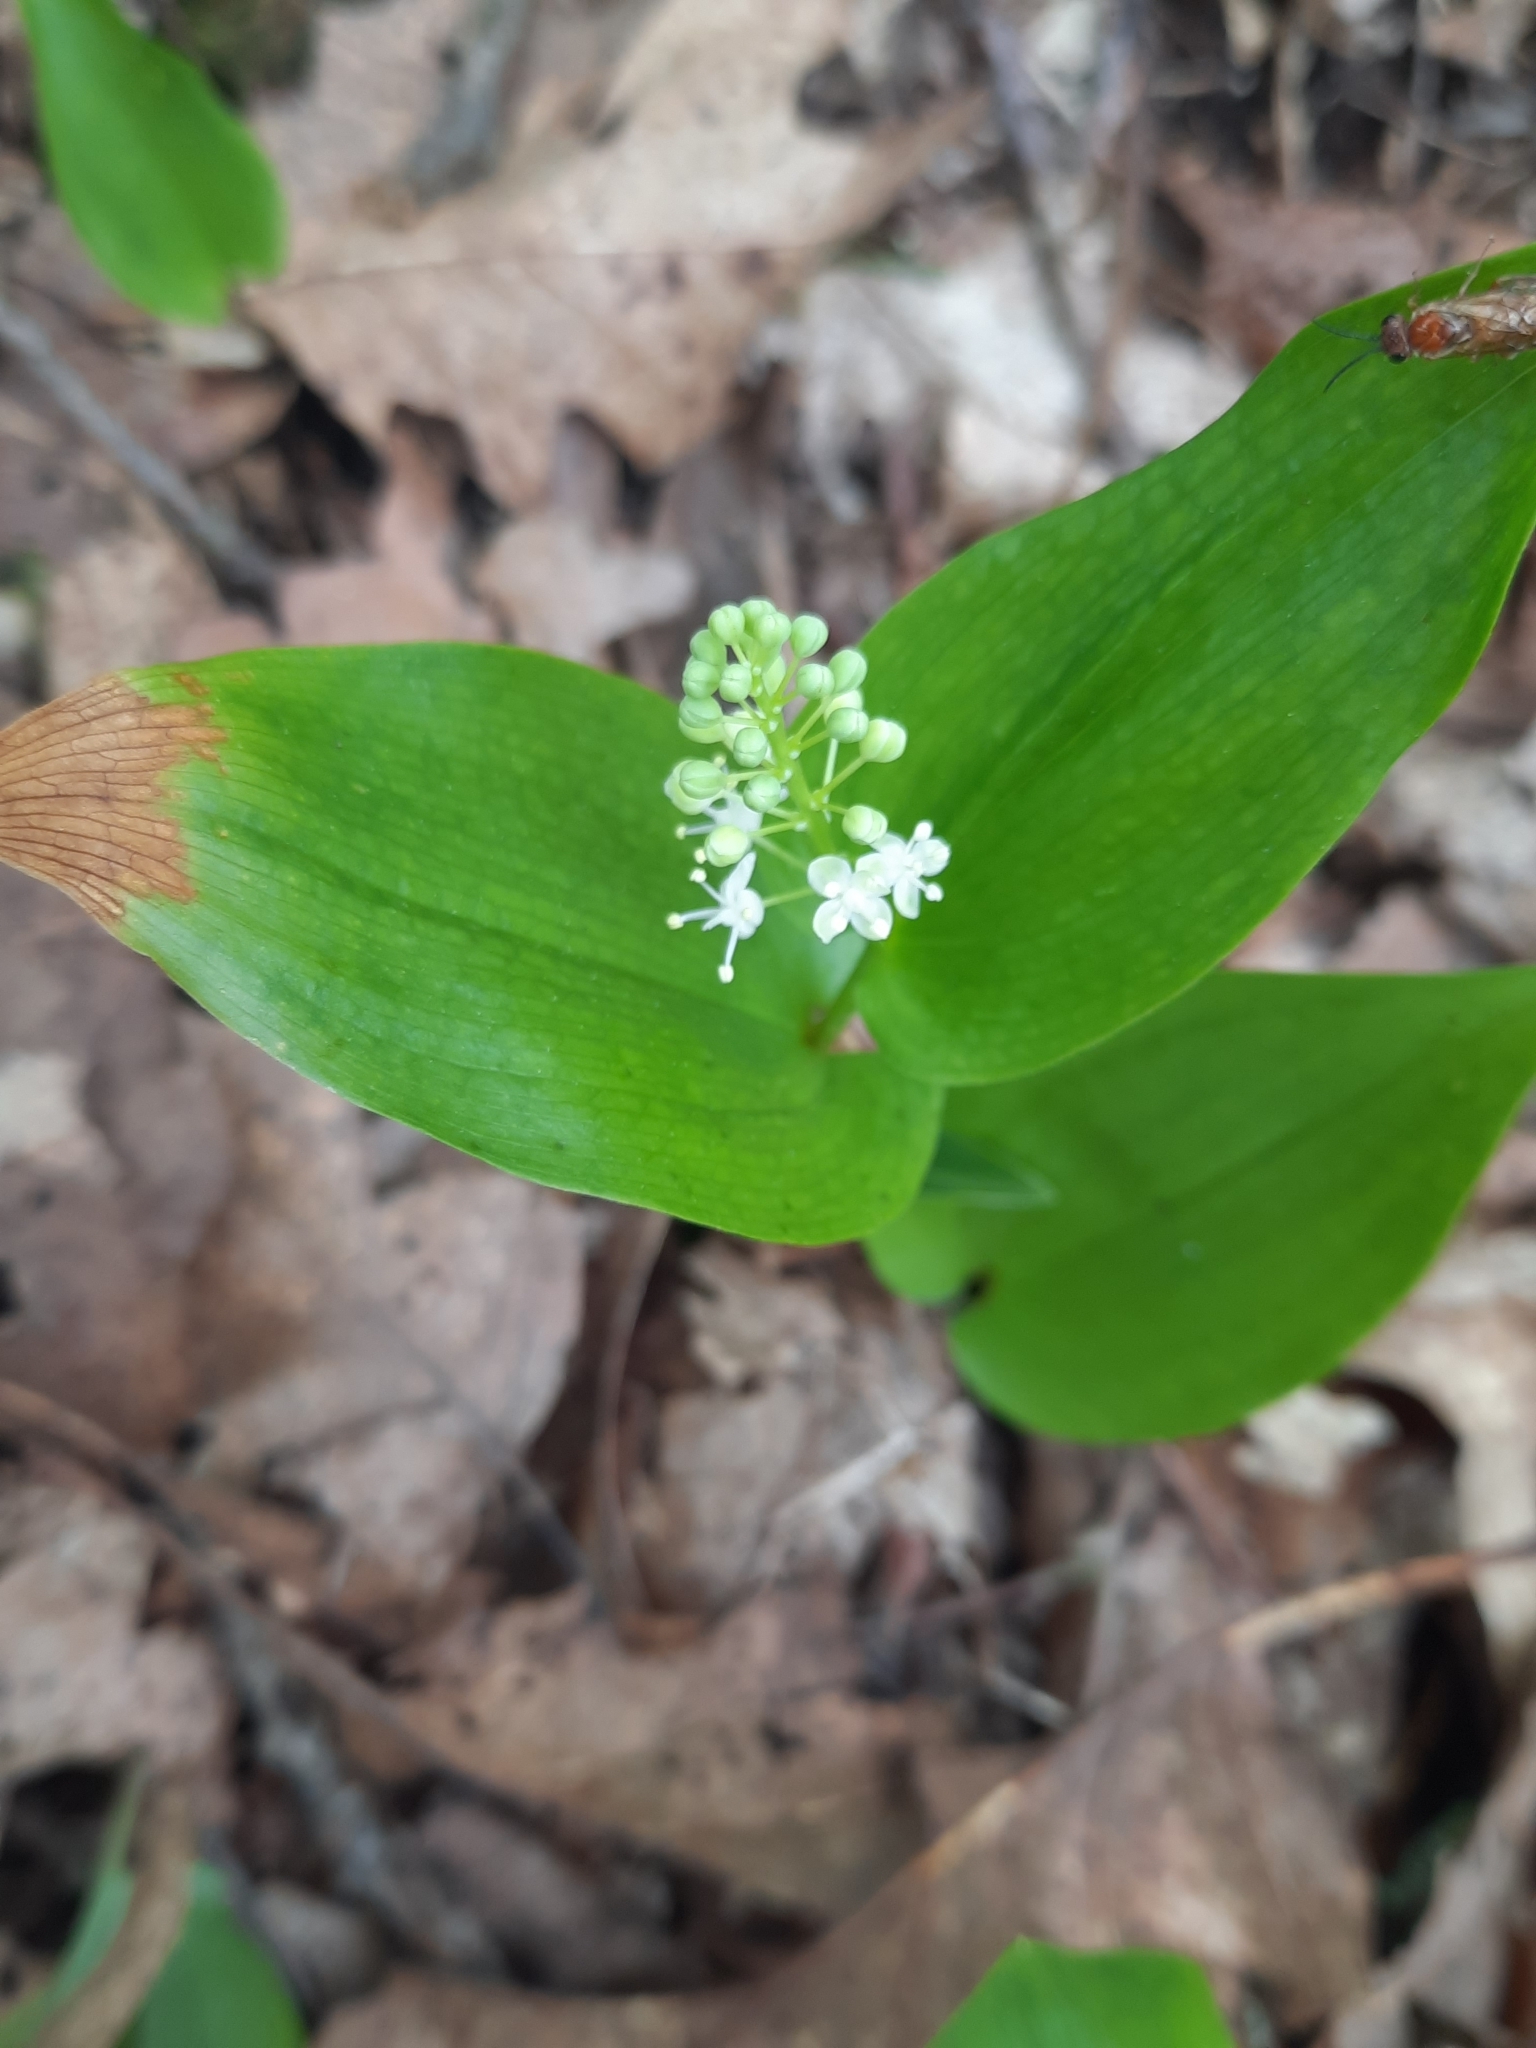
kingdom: Plantae
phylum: Tracheophyta
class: Liliopsida
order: Asparagales
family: Asparagaceae
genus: Maianthemum
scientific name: Maianthemum canadense
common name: False lily-of-the-valley
